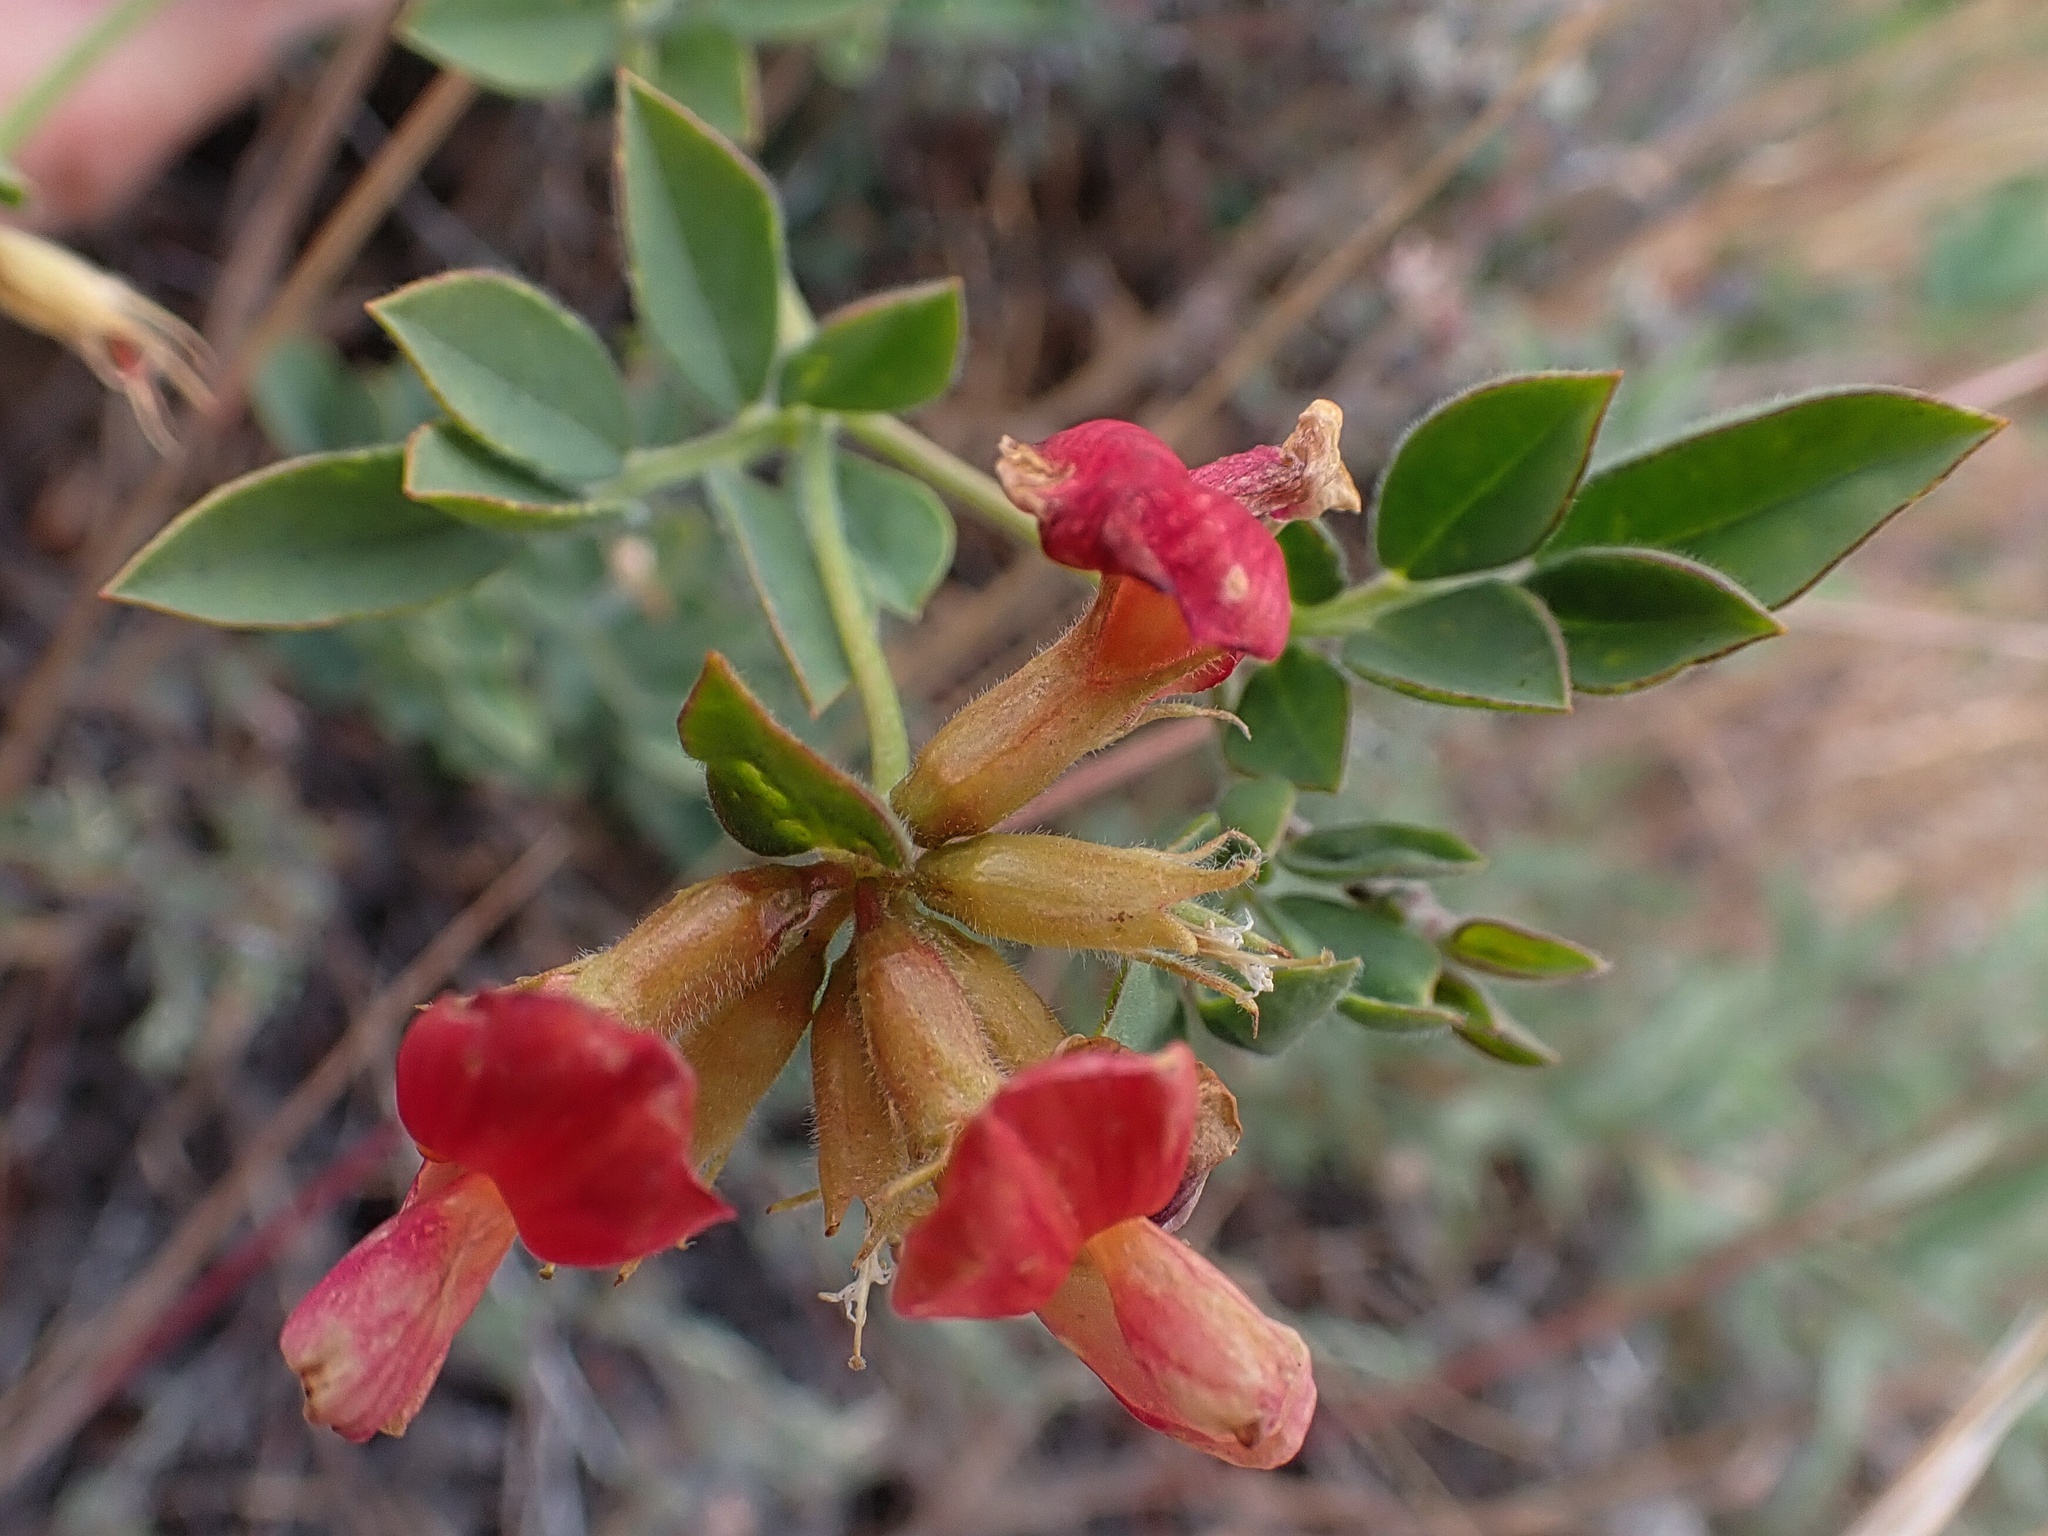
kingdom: Plantae
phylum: Tracheophyta
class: Magnoliopsida
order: Fabales
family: Fabaceae
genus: Acmispon
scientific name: Acmispon grandiflorus
